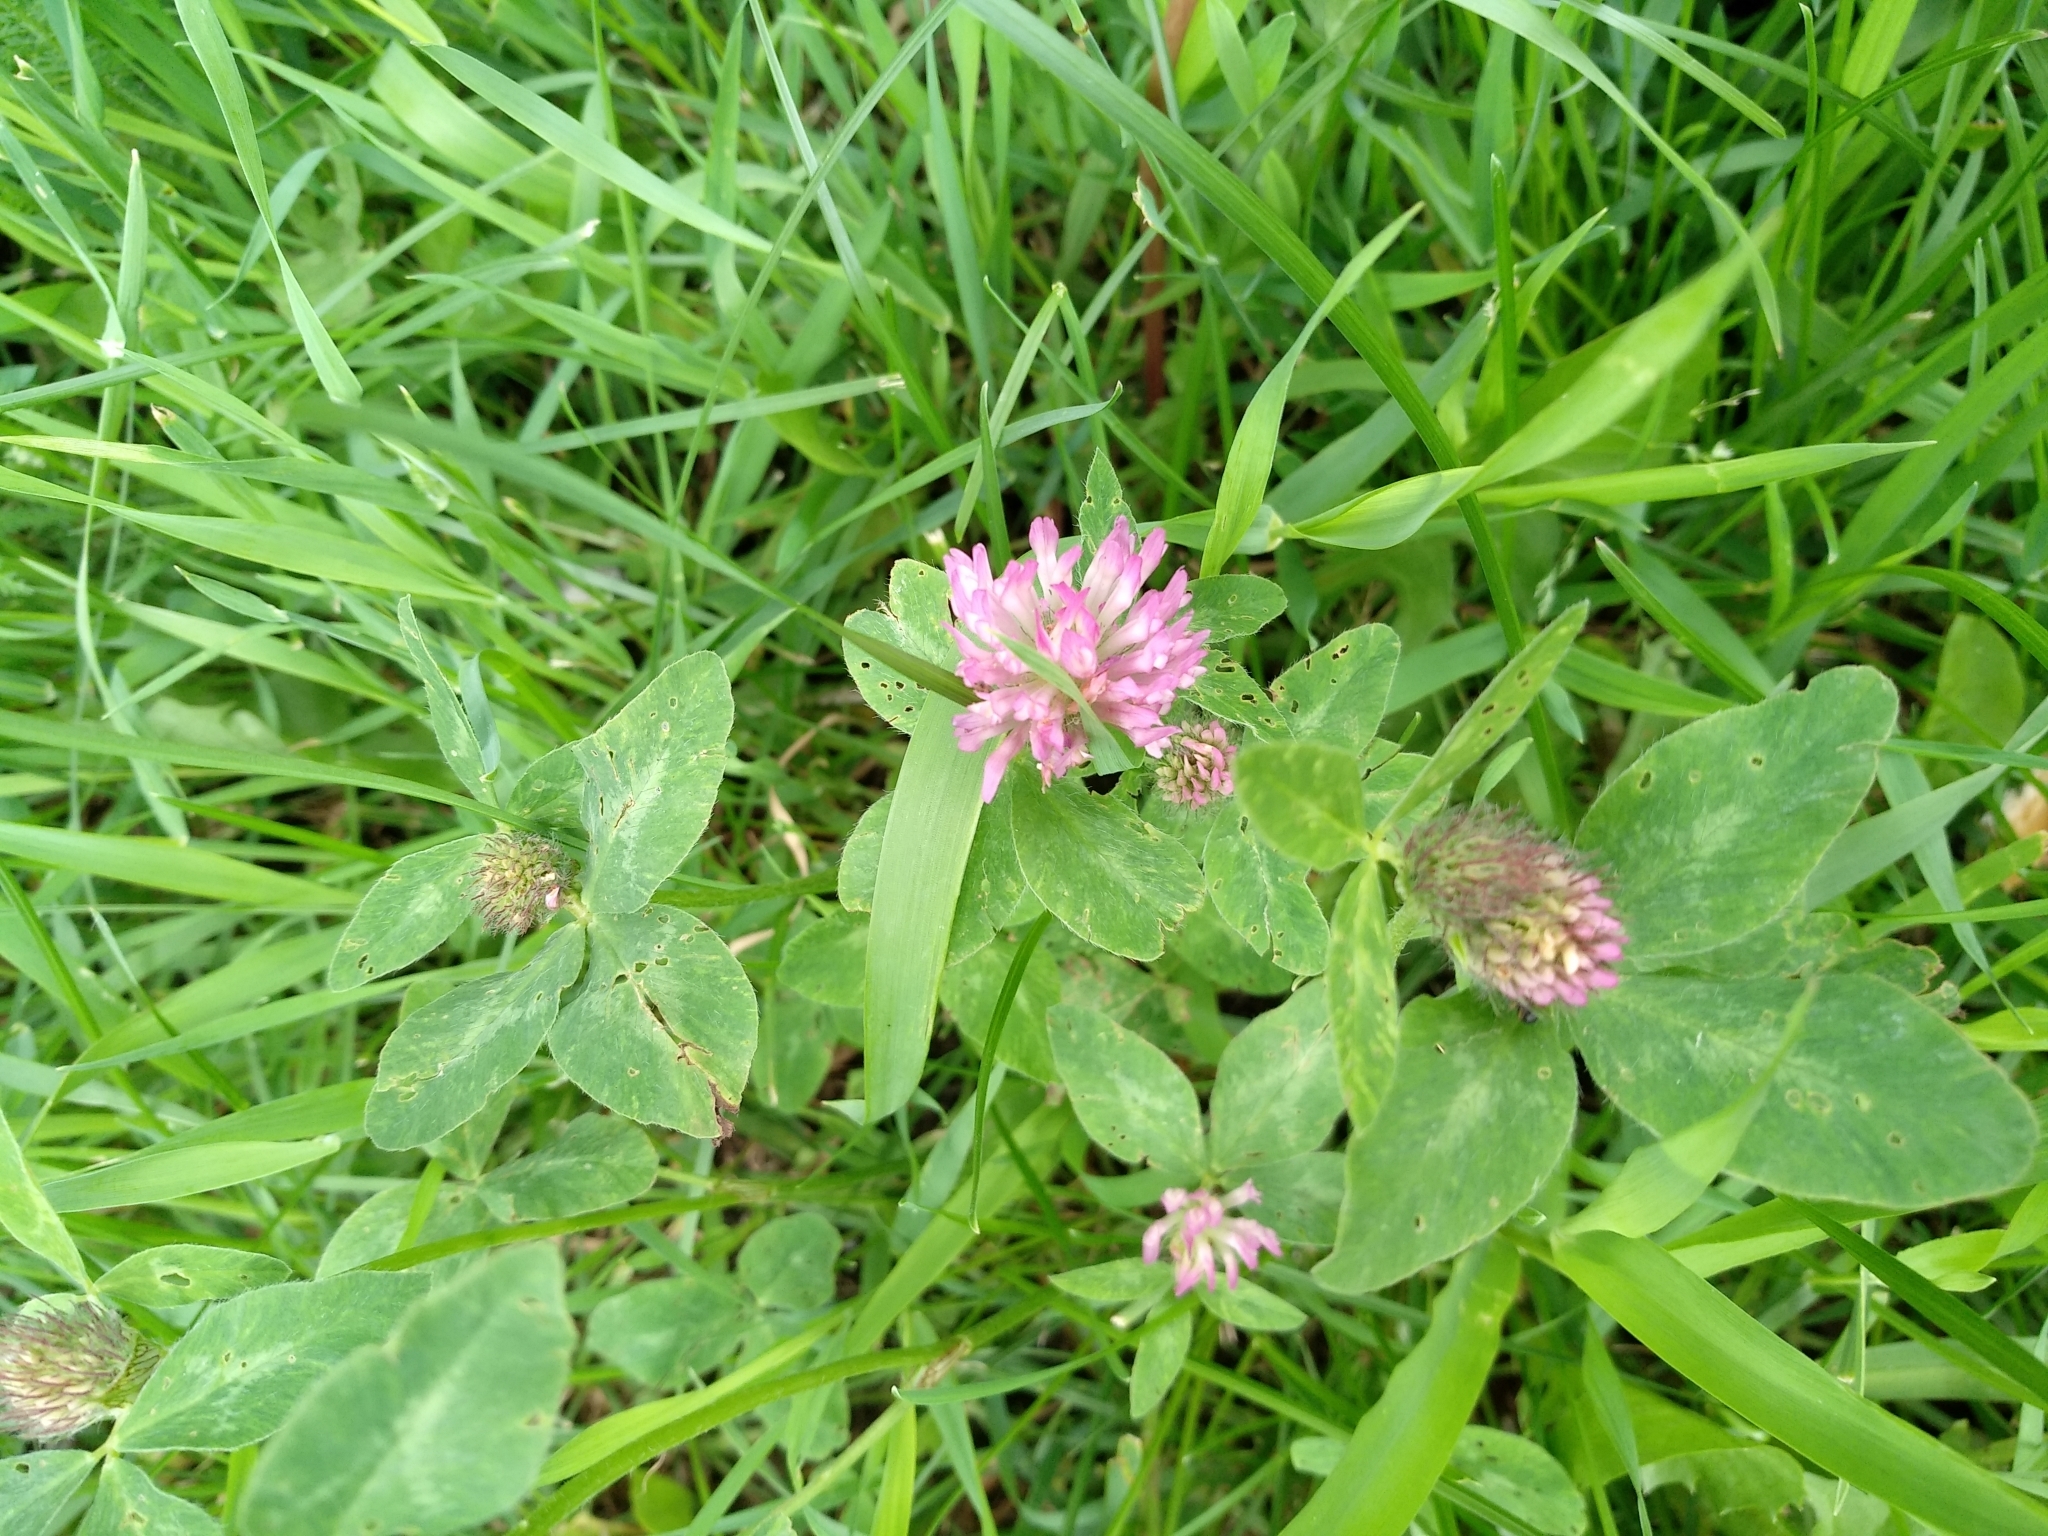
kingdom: Plantae
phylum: Tracheophyta
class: Magnoliopsida
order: Fabales
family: Fabaceae
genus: Trifolium
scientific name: Trifolium pratense
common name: Red clover
